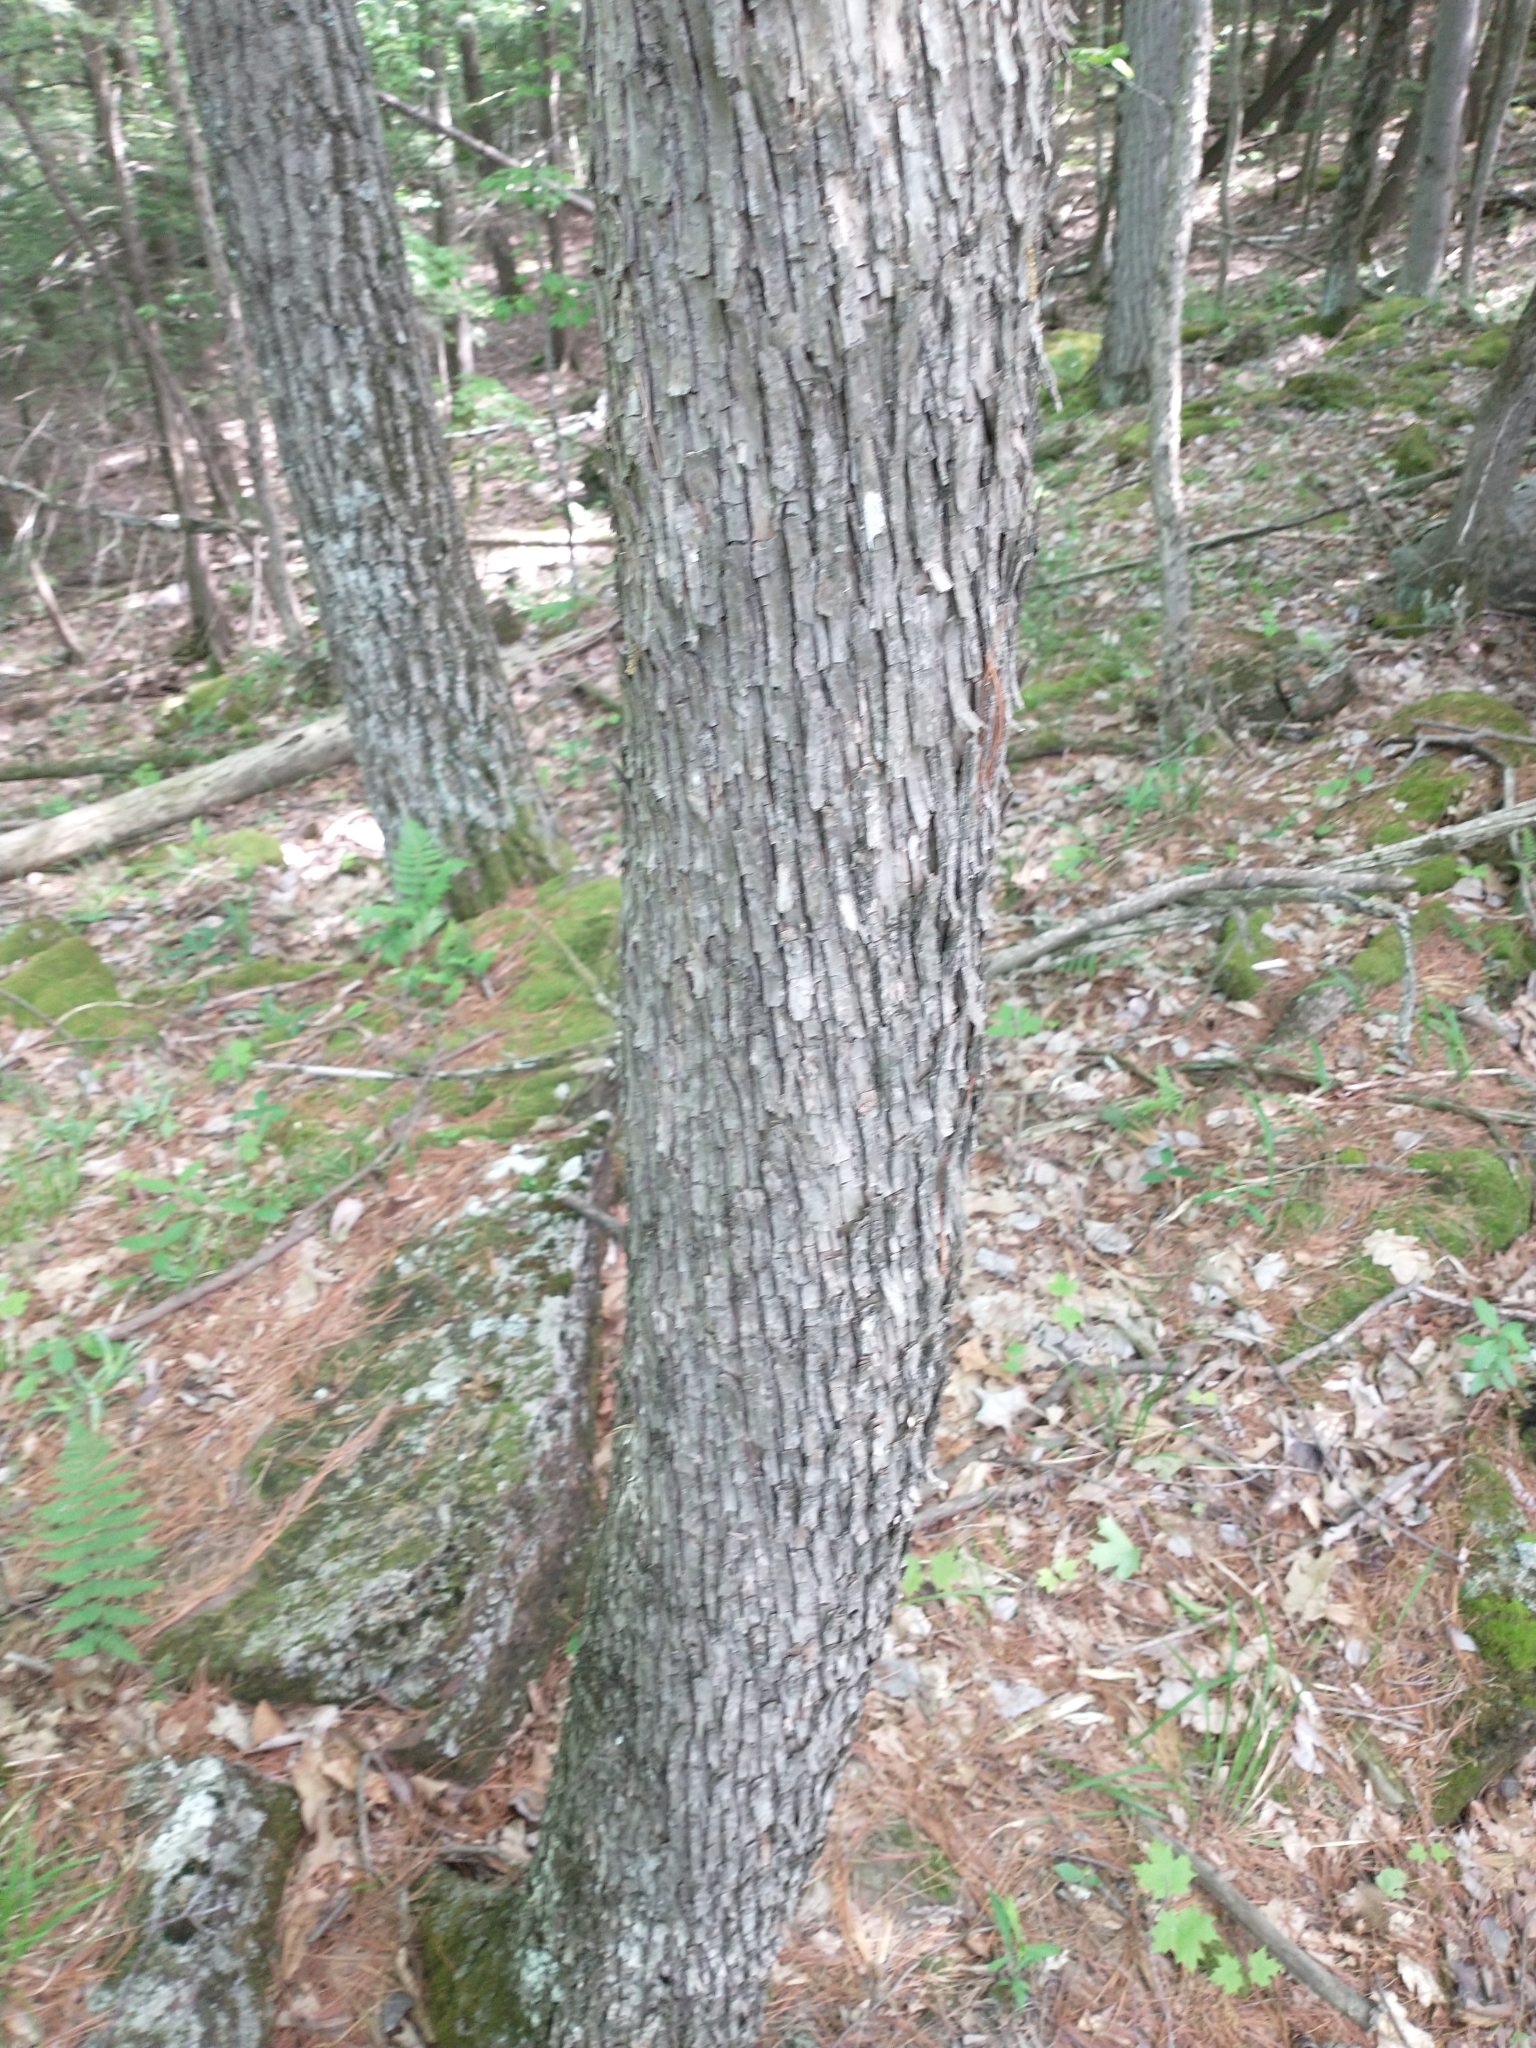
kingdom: Plantae
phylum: Tracheophyta
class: Magnoliopsida
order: Fagales
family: Betulaceae
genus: Ostrya
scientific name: Ostrya virginiana
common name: Ironwood
